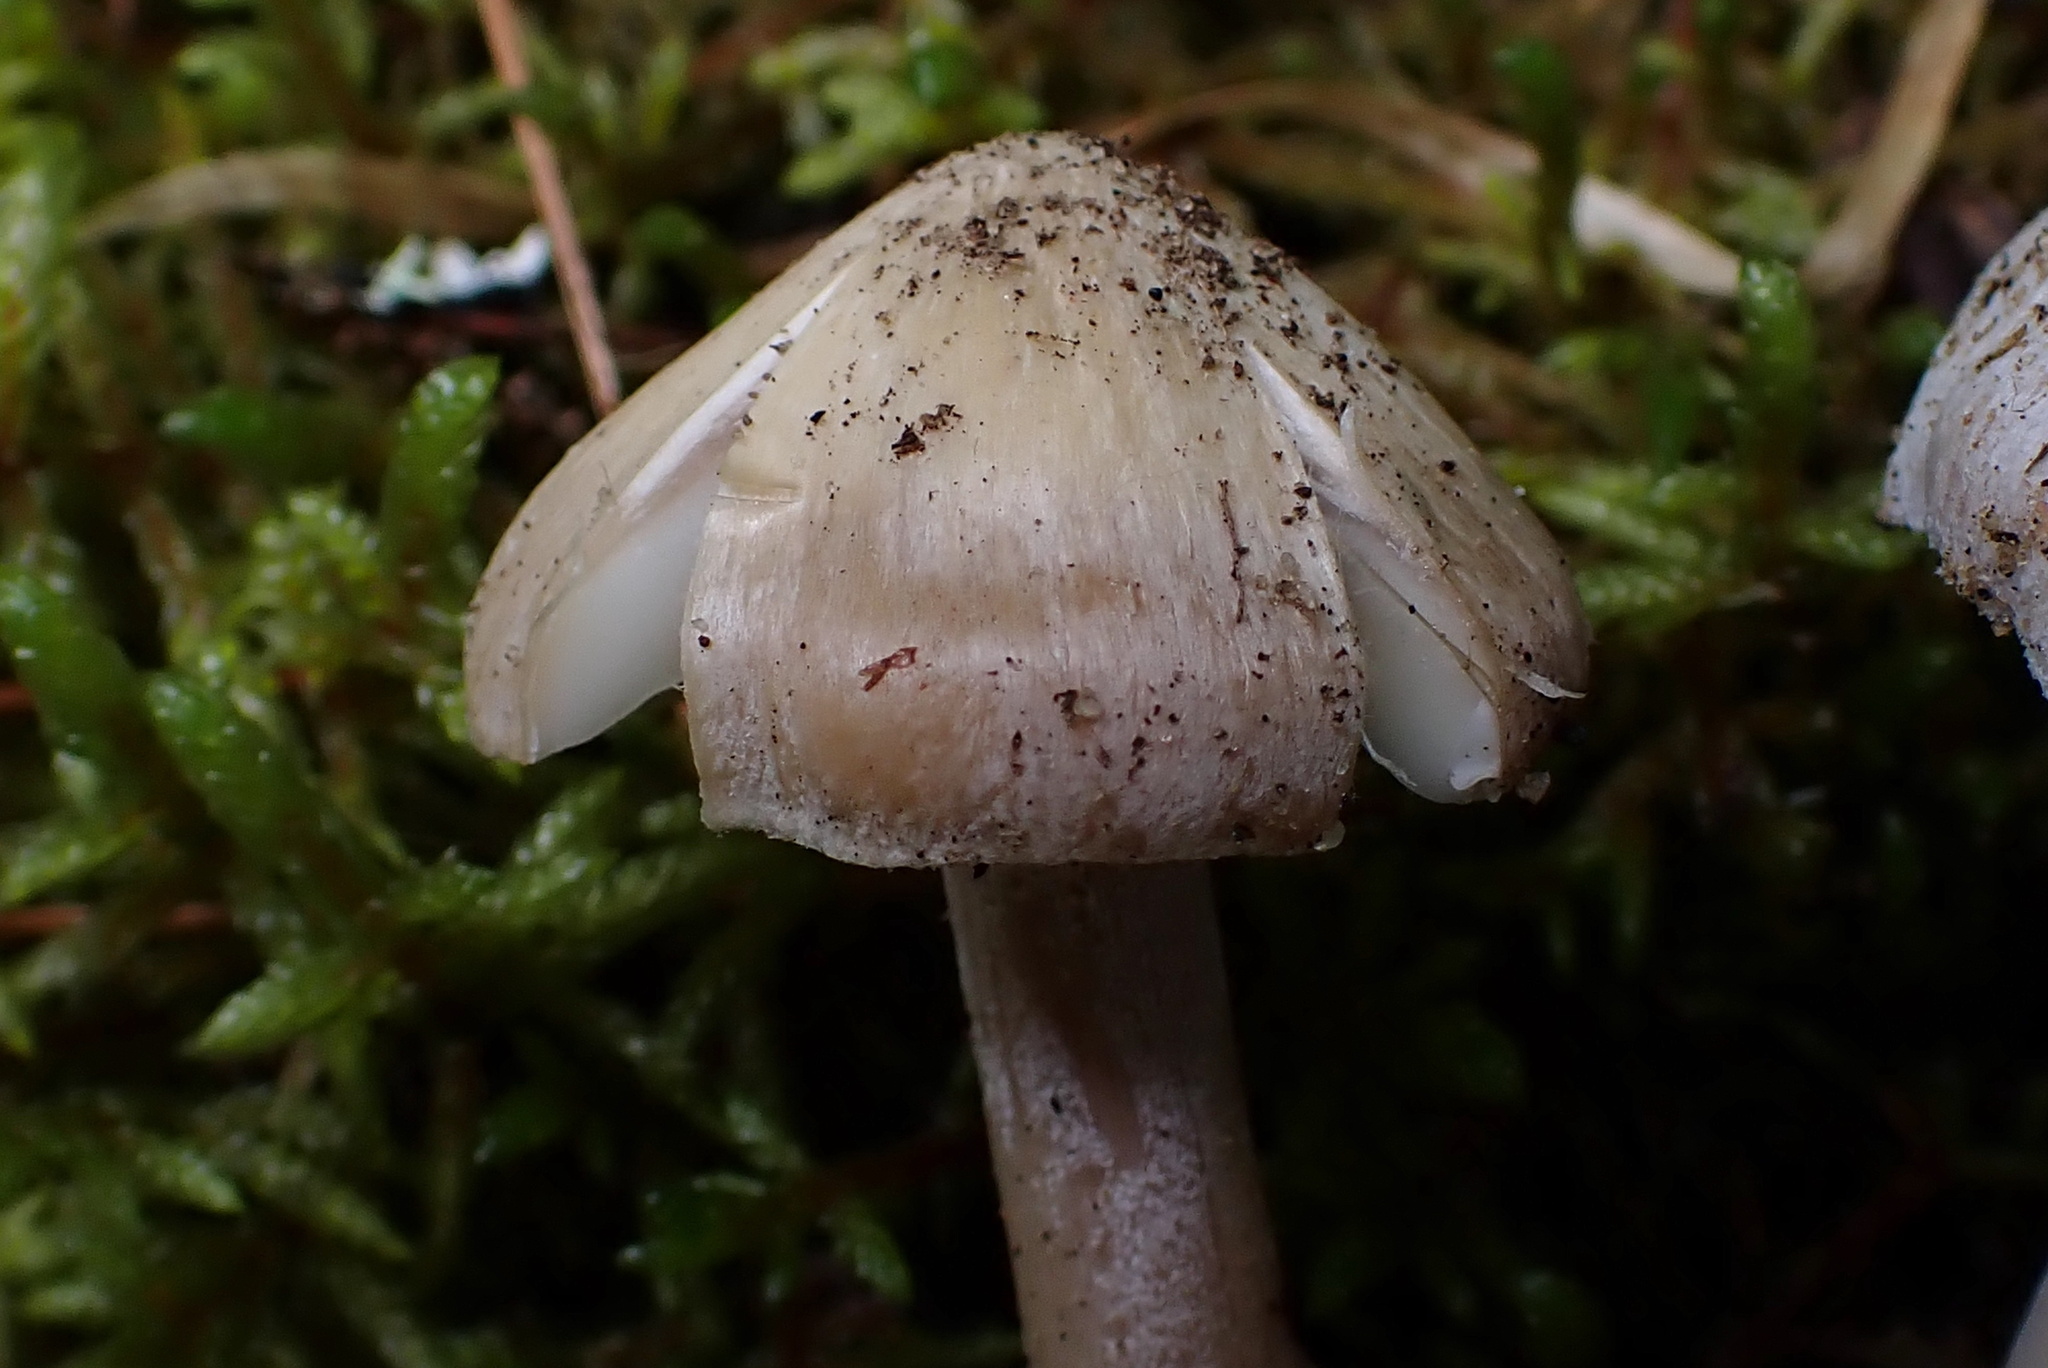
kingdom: Fungi
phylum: Basidiomycota
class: Agaricomycetes
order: Agaricales
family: Inocybaceae
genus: Inocybe
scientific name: Inocybe acriolens
